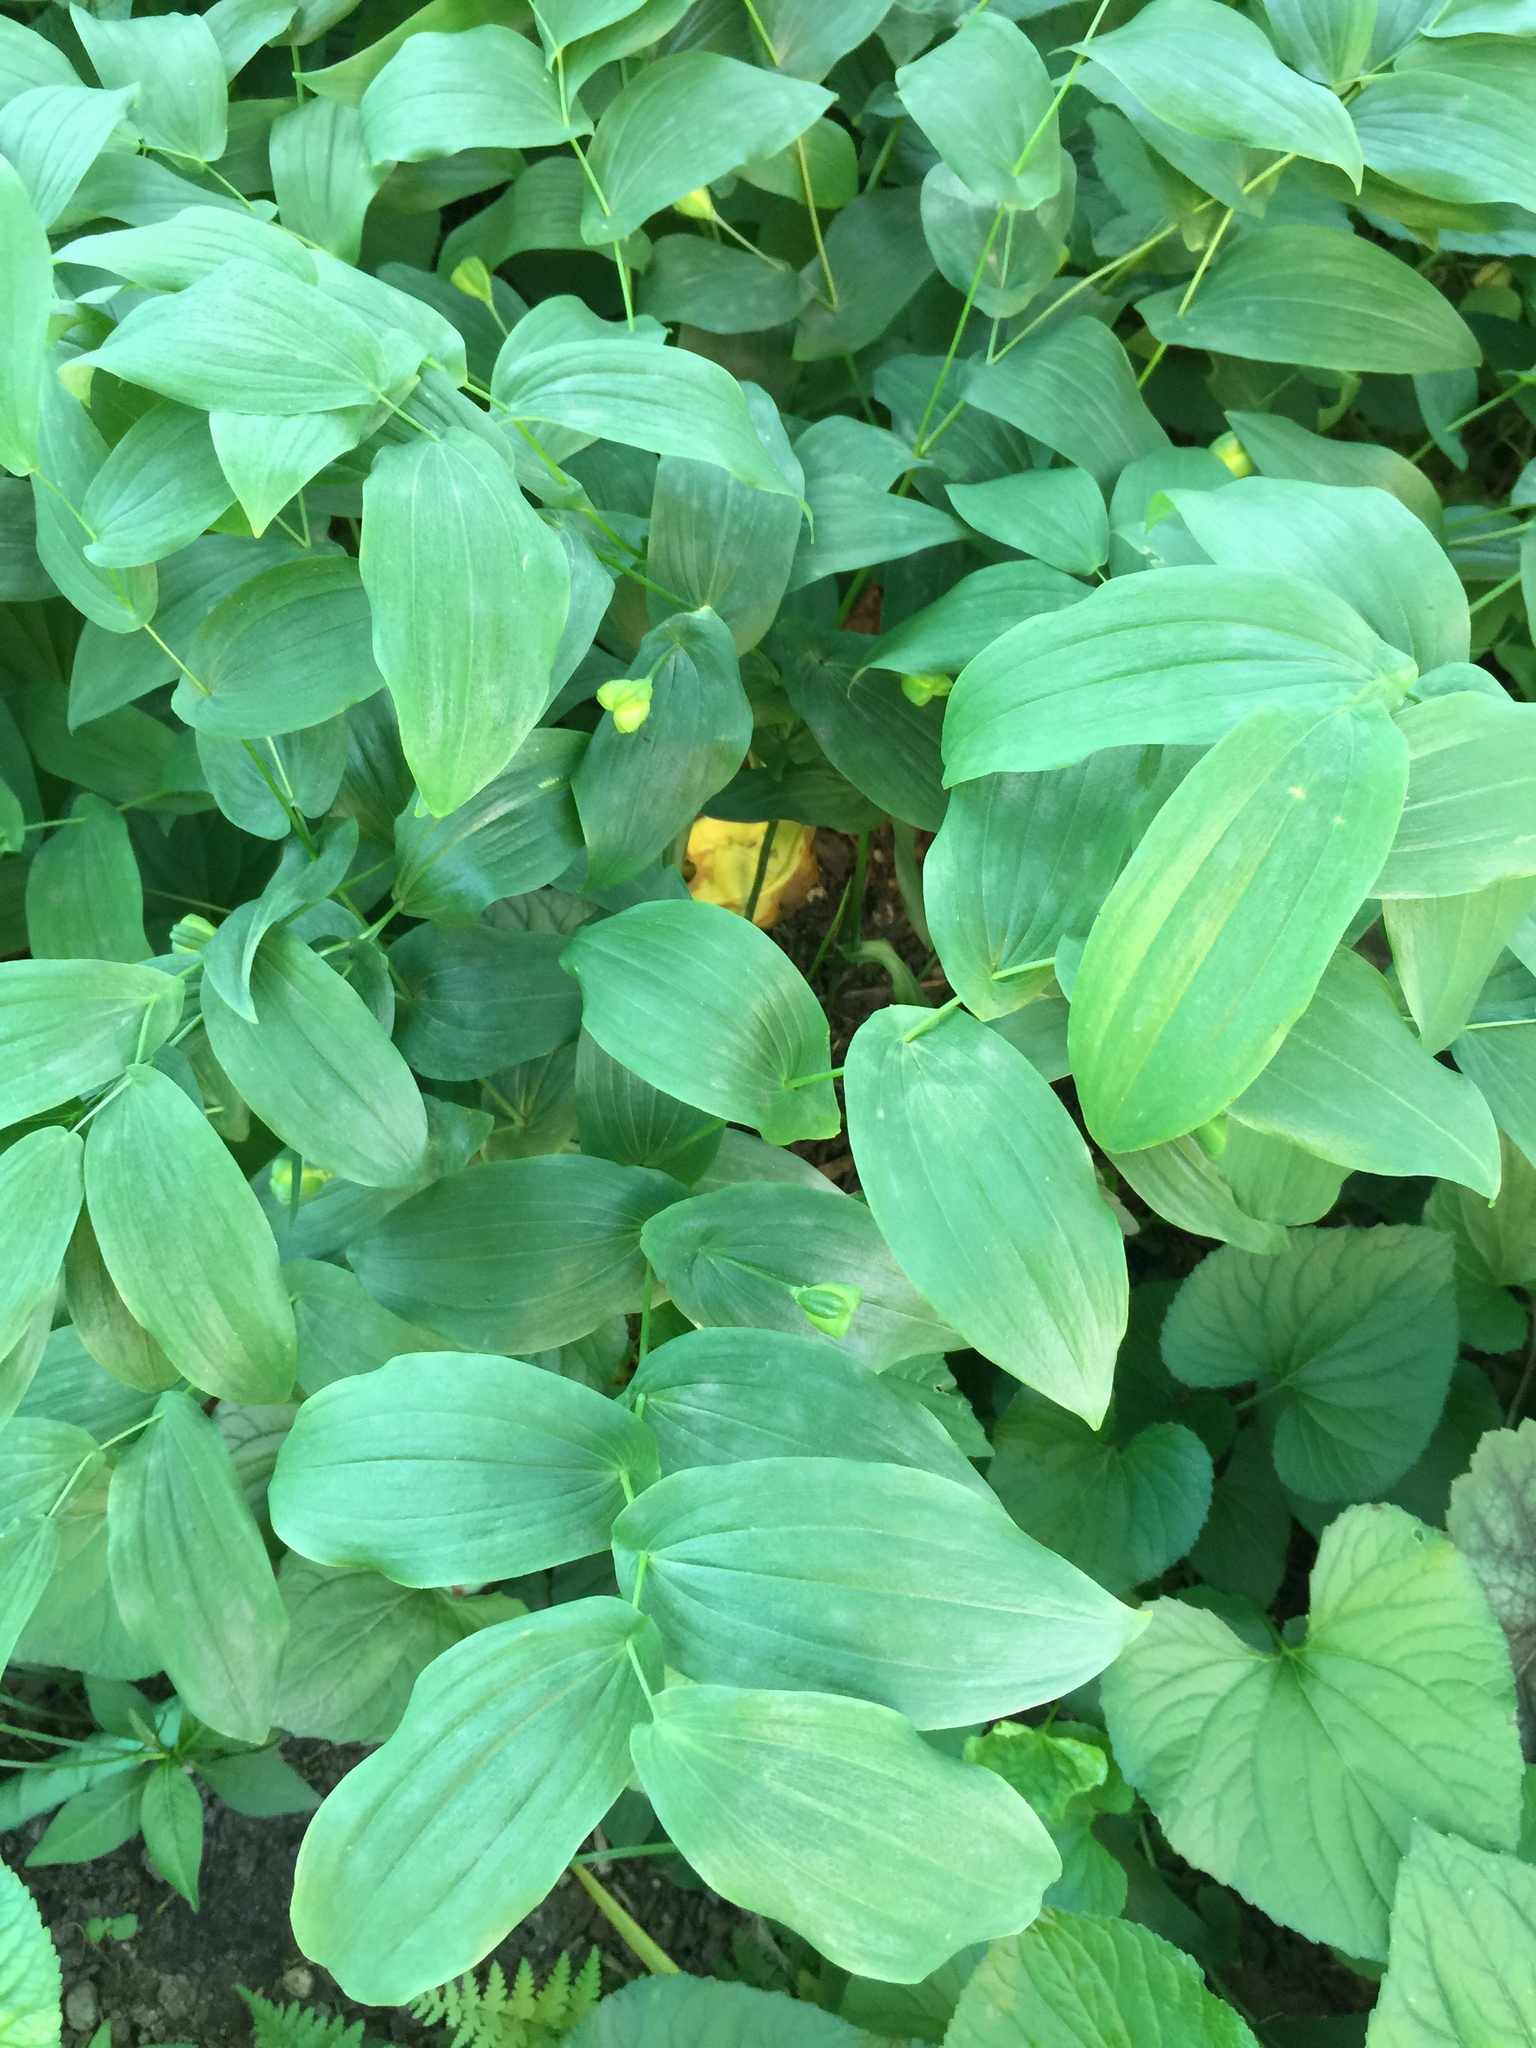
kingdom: Plantae
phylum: Tracheophyta
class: Liliopsida
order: Liliales
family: Colchicaceae
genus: Uvularia
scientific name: Uvularia grandiflora
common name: Bellwort
